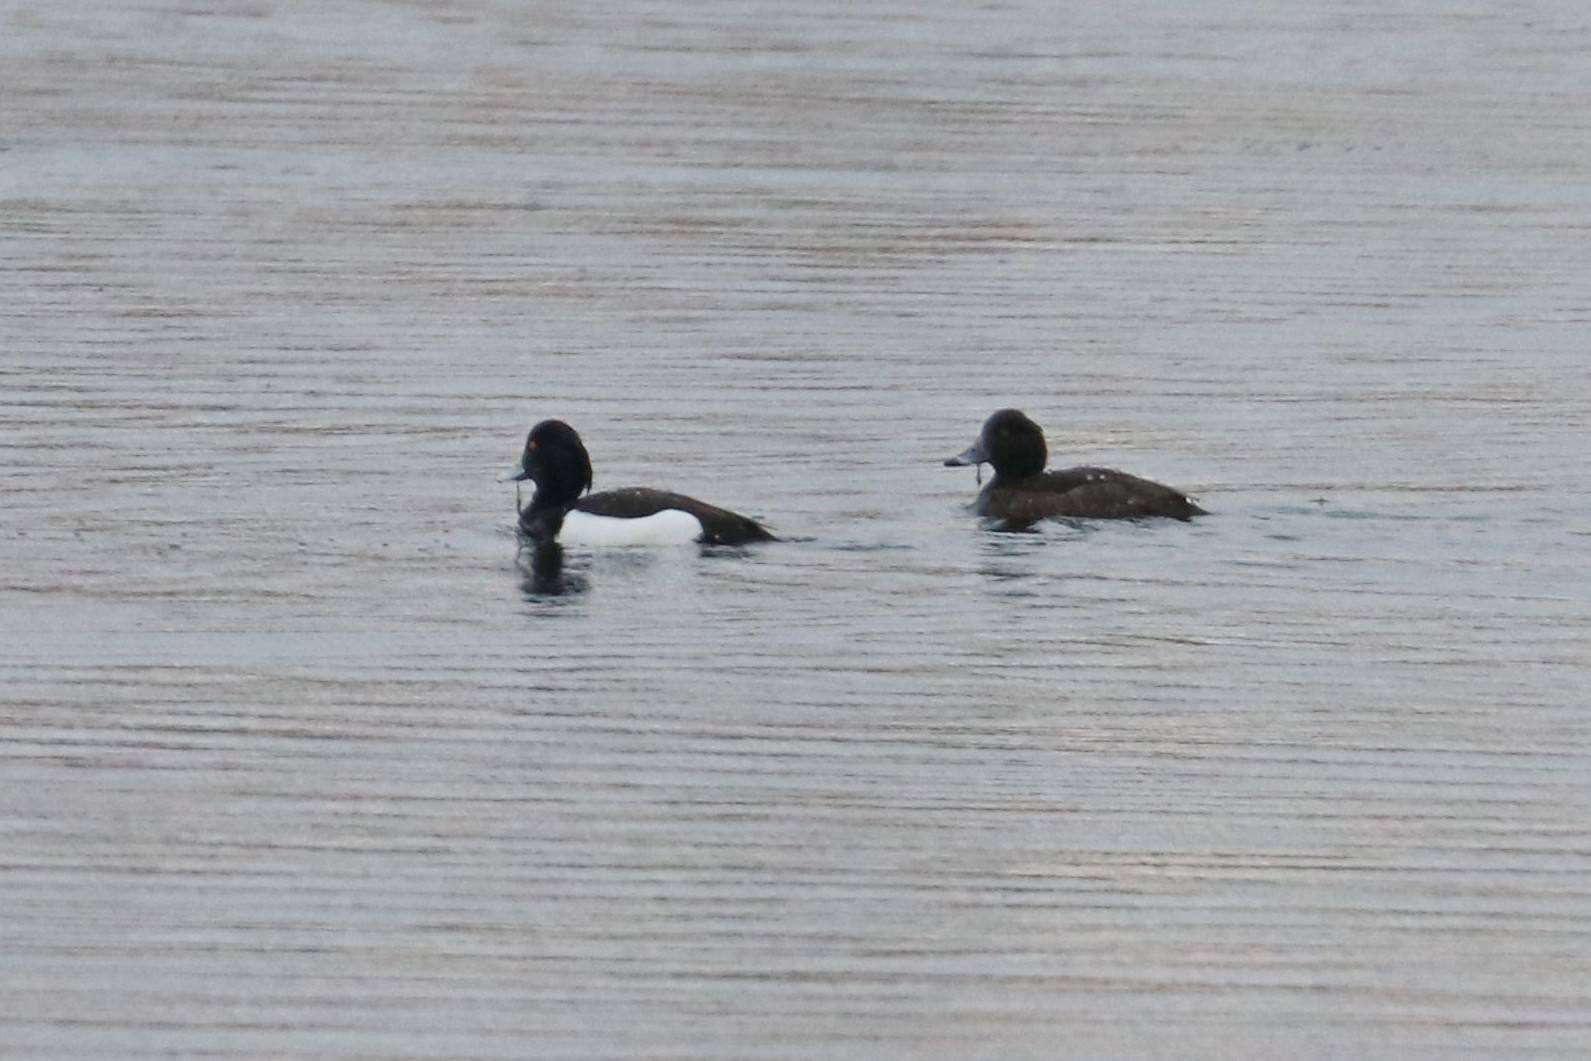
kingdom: Animalia
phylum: Chordata
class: Aves
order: Anseriformes
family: Anatidae
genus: Aythya
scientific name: Aythya fuligula
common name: Tufted duck
